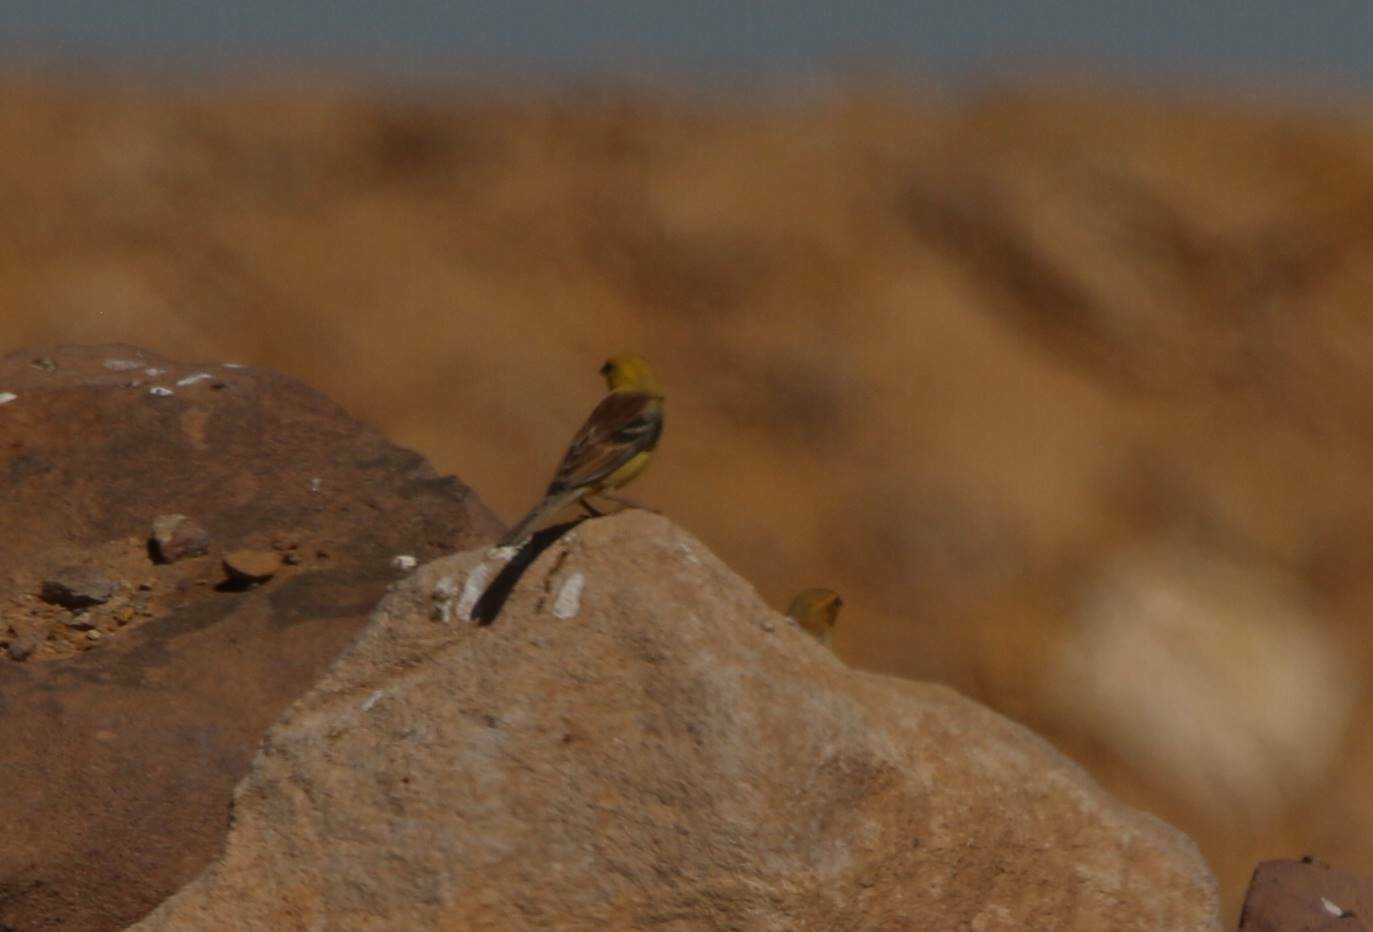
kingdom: Animalia
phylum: Chordata
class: Aves
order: Passeriformes
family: Passeridae
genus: Passer
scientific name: Passer luteus
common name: Sudan golden sparrow
